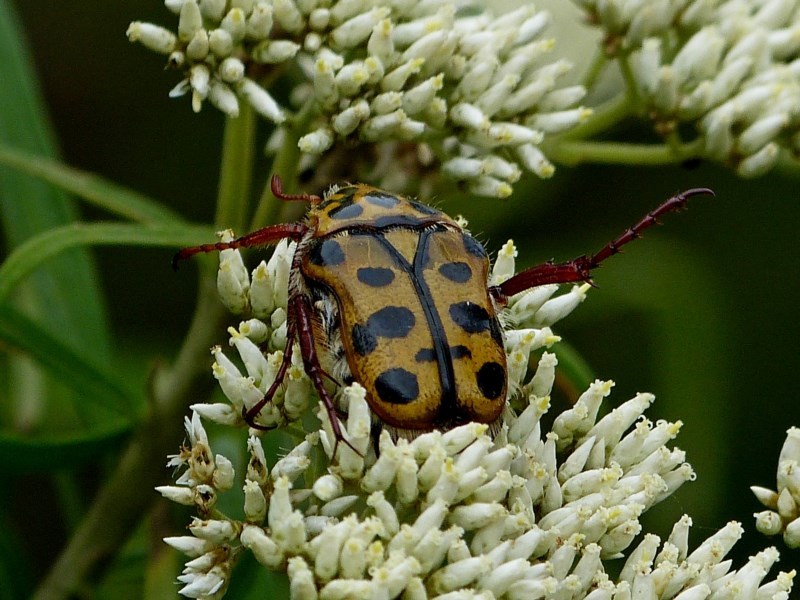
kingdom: Animalia
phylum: Arthropoda
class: Insecta
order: Coleoptera
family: Scarabaeidae
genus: Neorrhina
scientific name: Neorrhina punctatum
